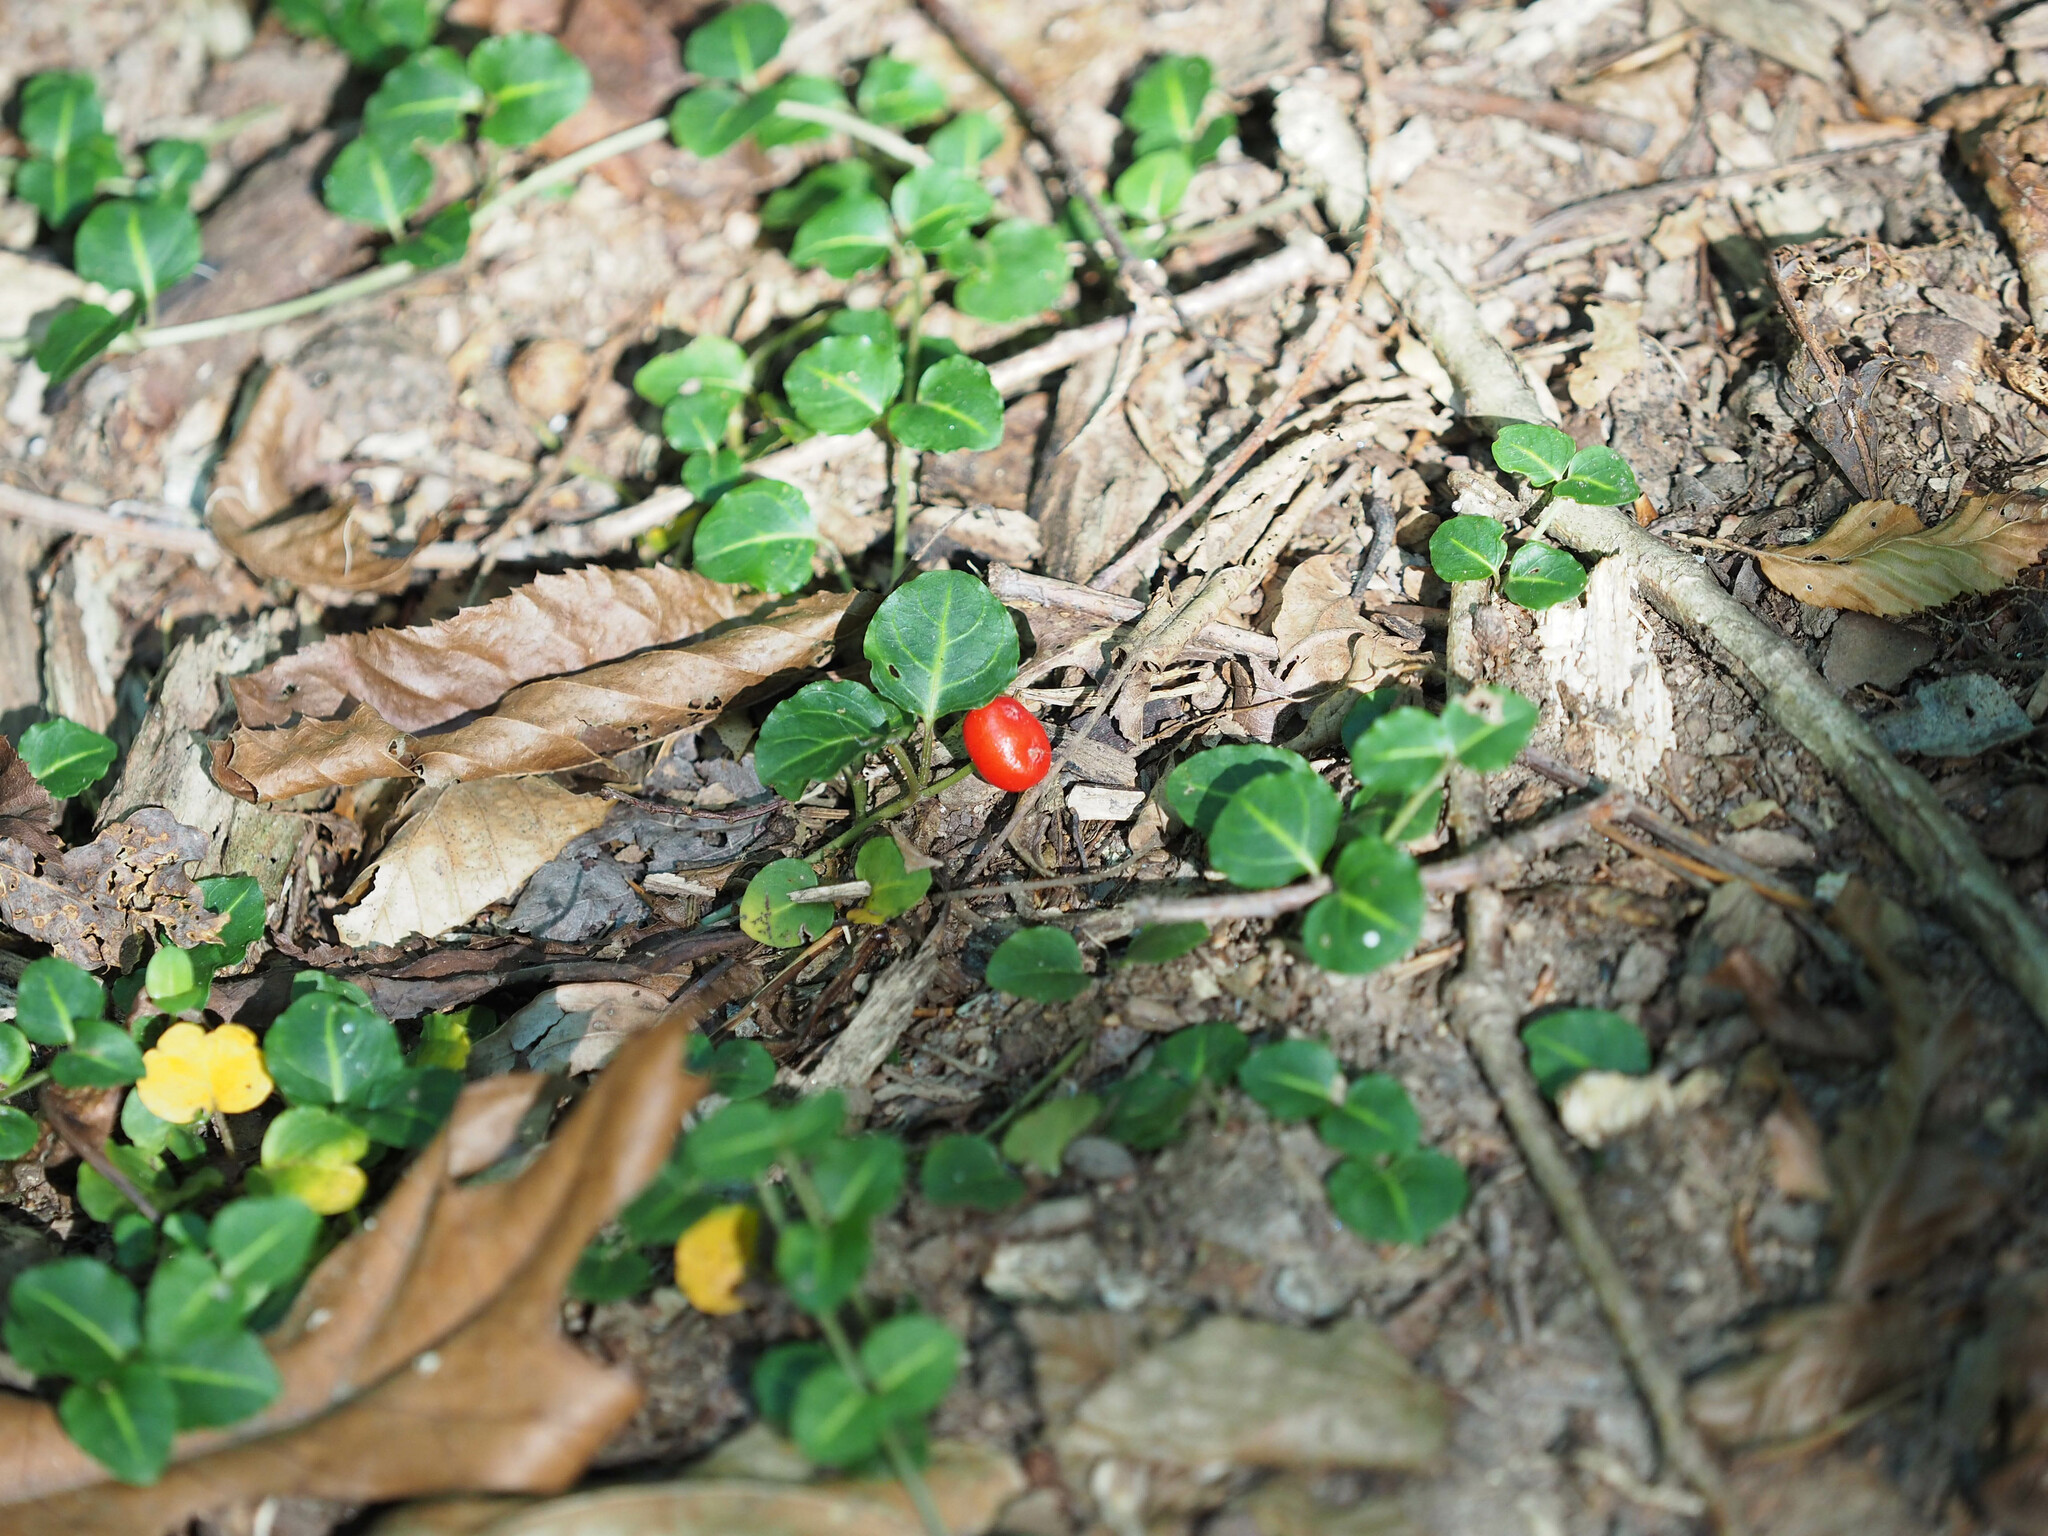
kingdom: Plantae
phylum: Tracheophyta
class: Magnoliopsida
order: Gentianales
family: Rubiaceae
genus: Mitchella
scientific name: Mitchella repens
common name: Partridge-berry
